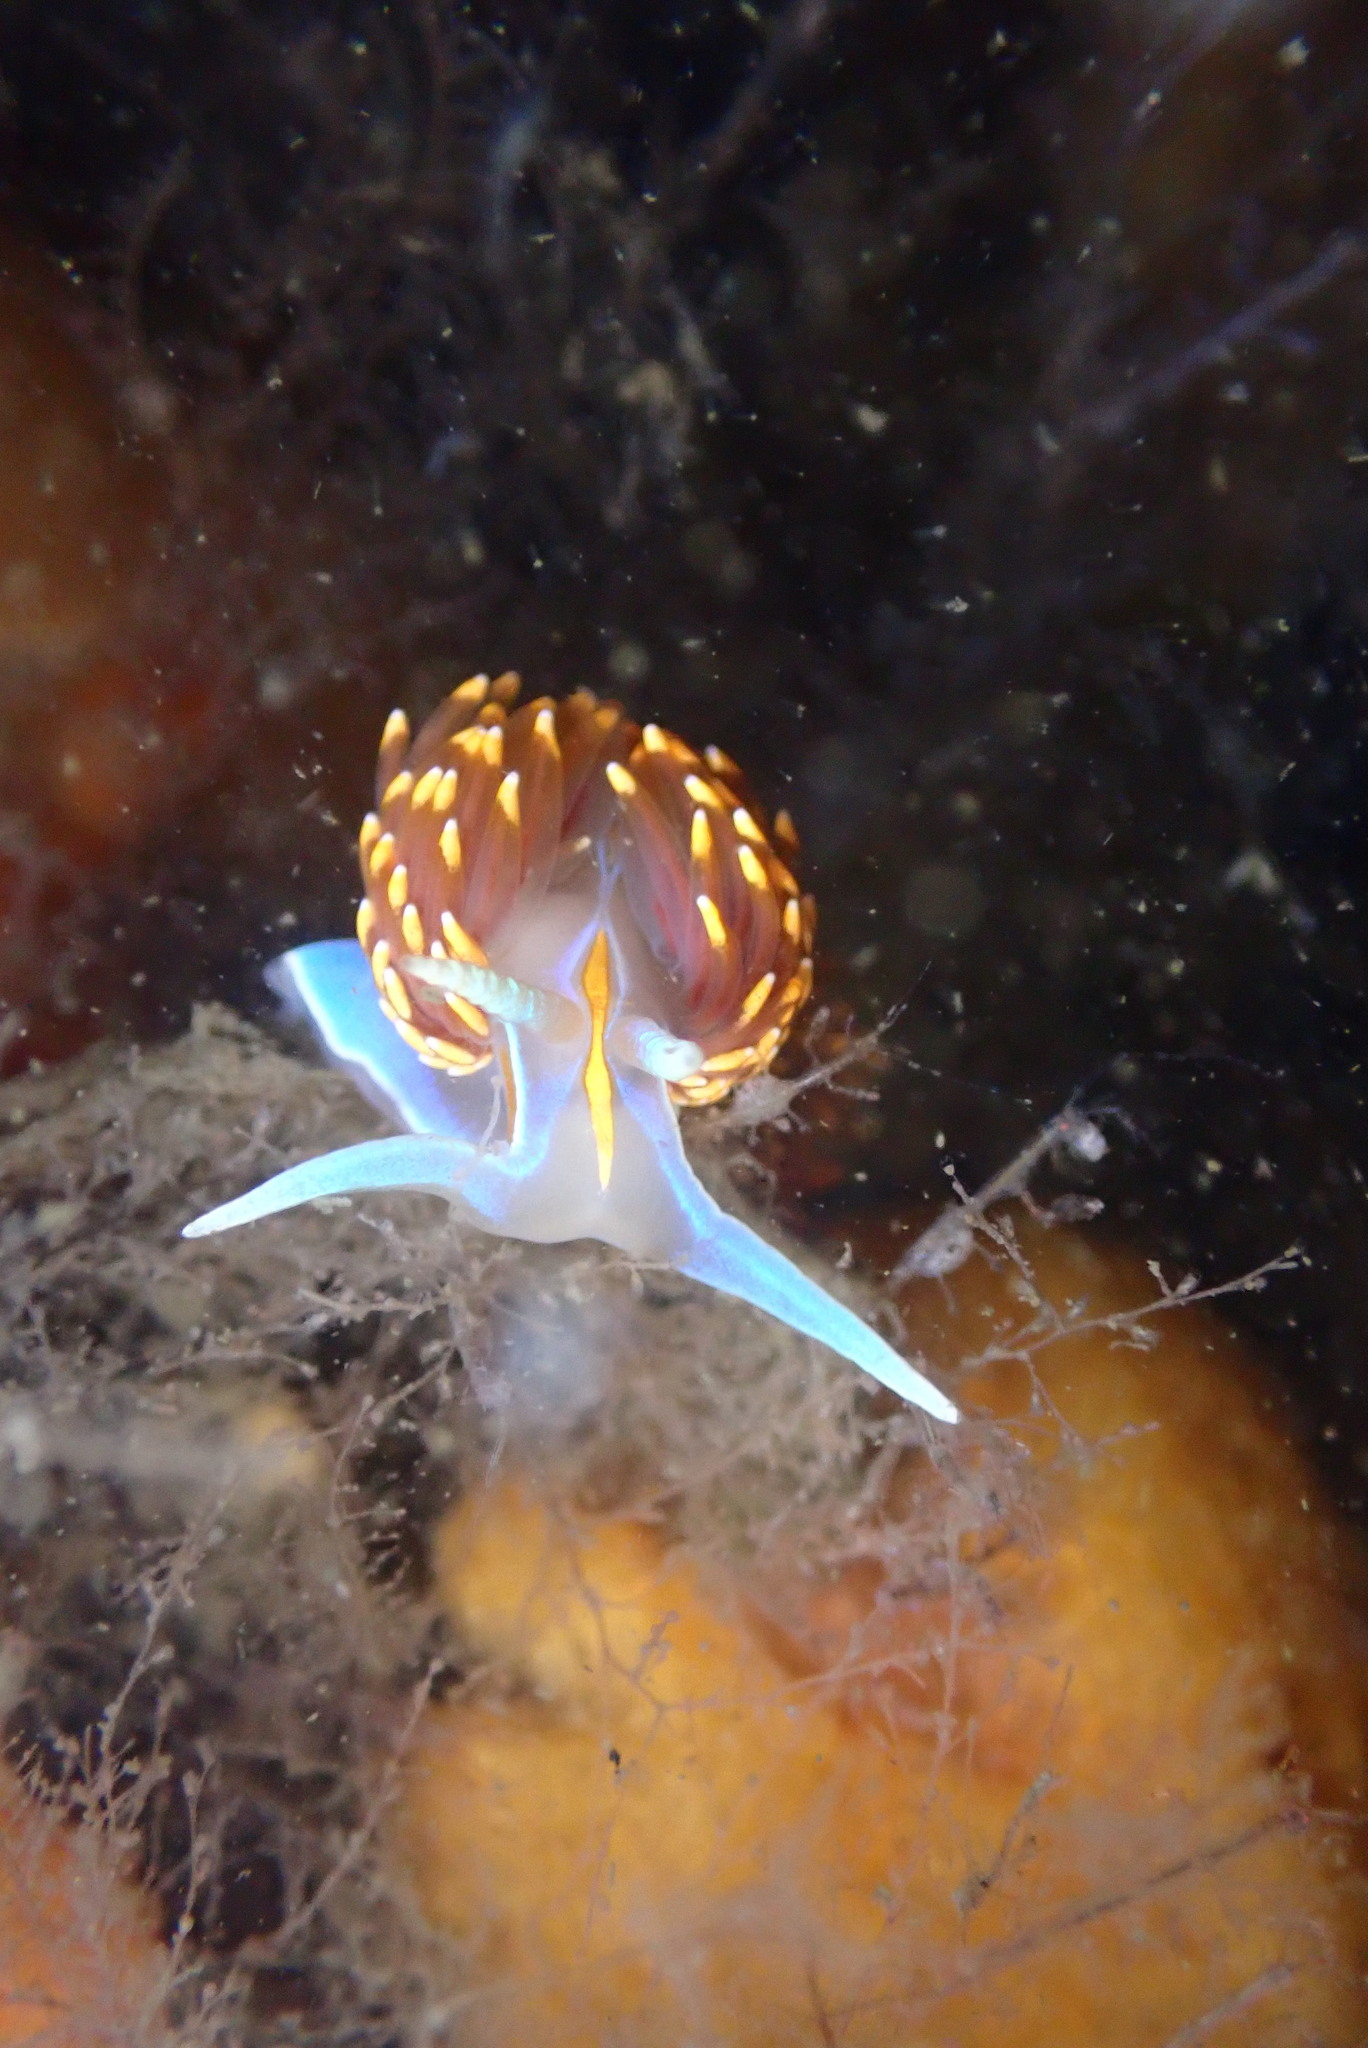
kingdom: Animalia
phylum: Mollusca
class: Gastropoda
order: Nudibranchia
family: Myrrhinidae
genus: Hermissenda
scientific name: Hermissenda opalescens
